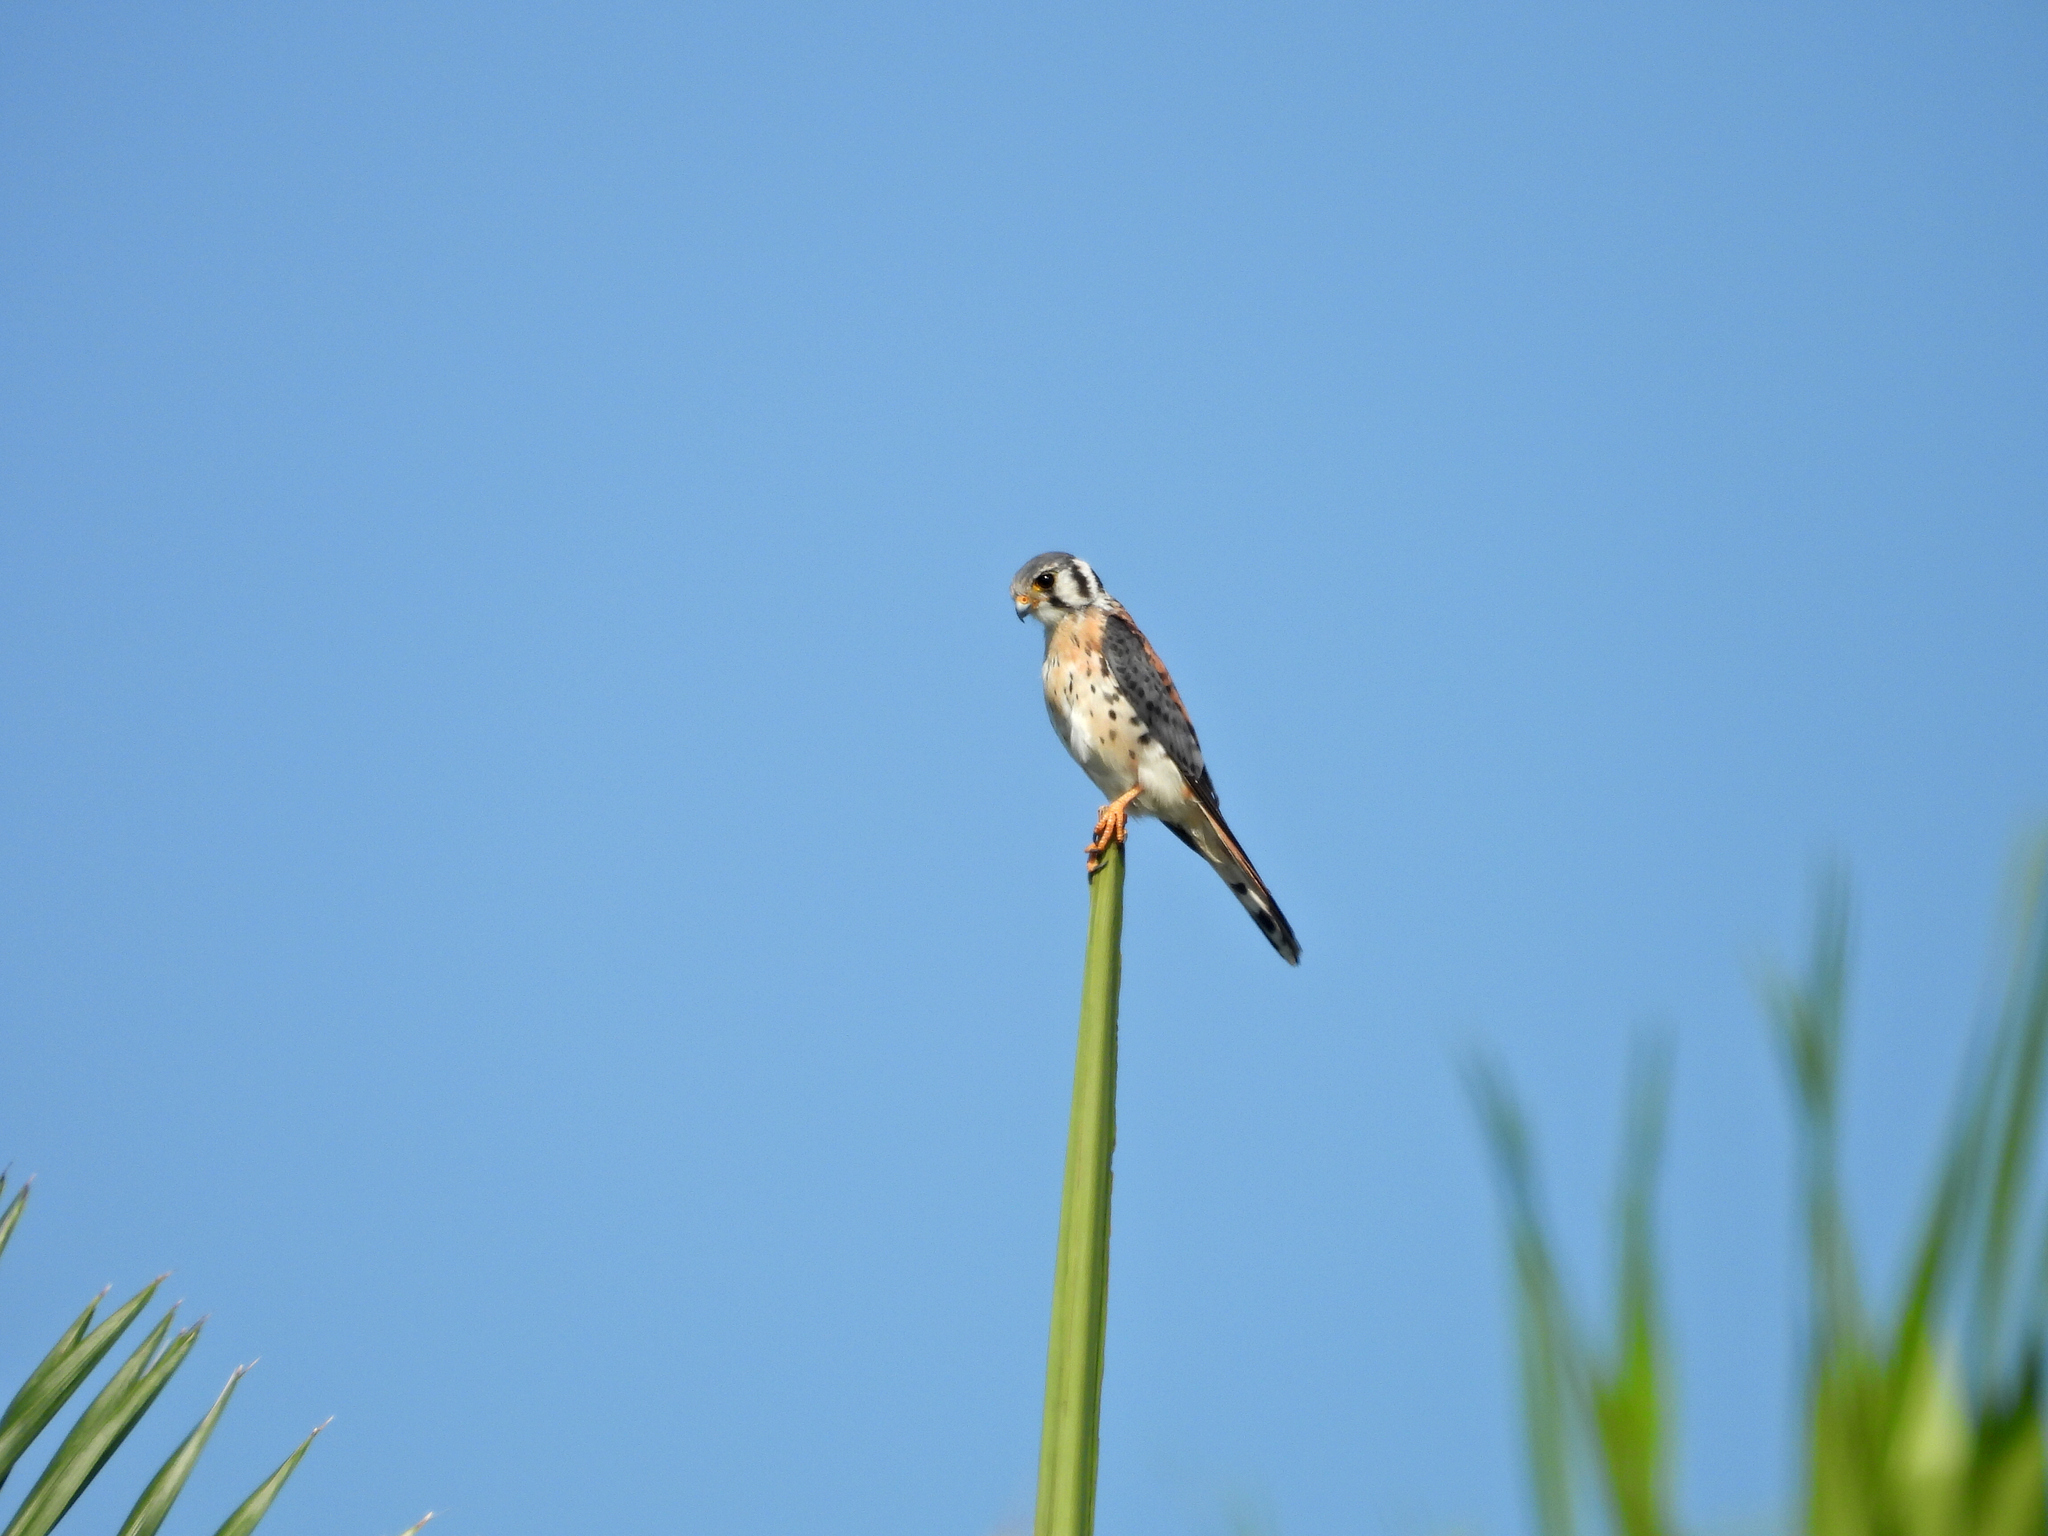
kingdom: Animalia
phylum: Chordata
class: Aves
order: Falconiformes
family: Falconidae
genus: Falco
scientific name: Falco sparverius
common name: American kestrel
